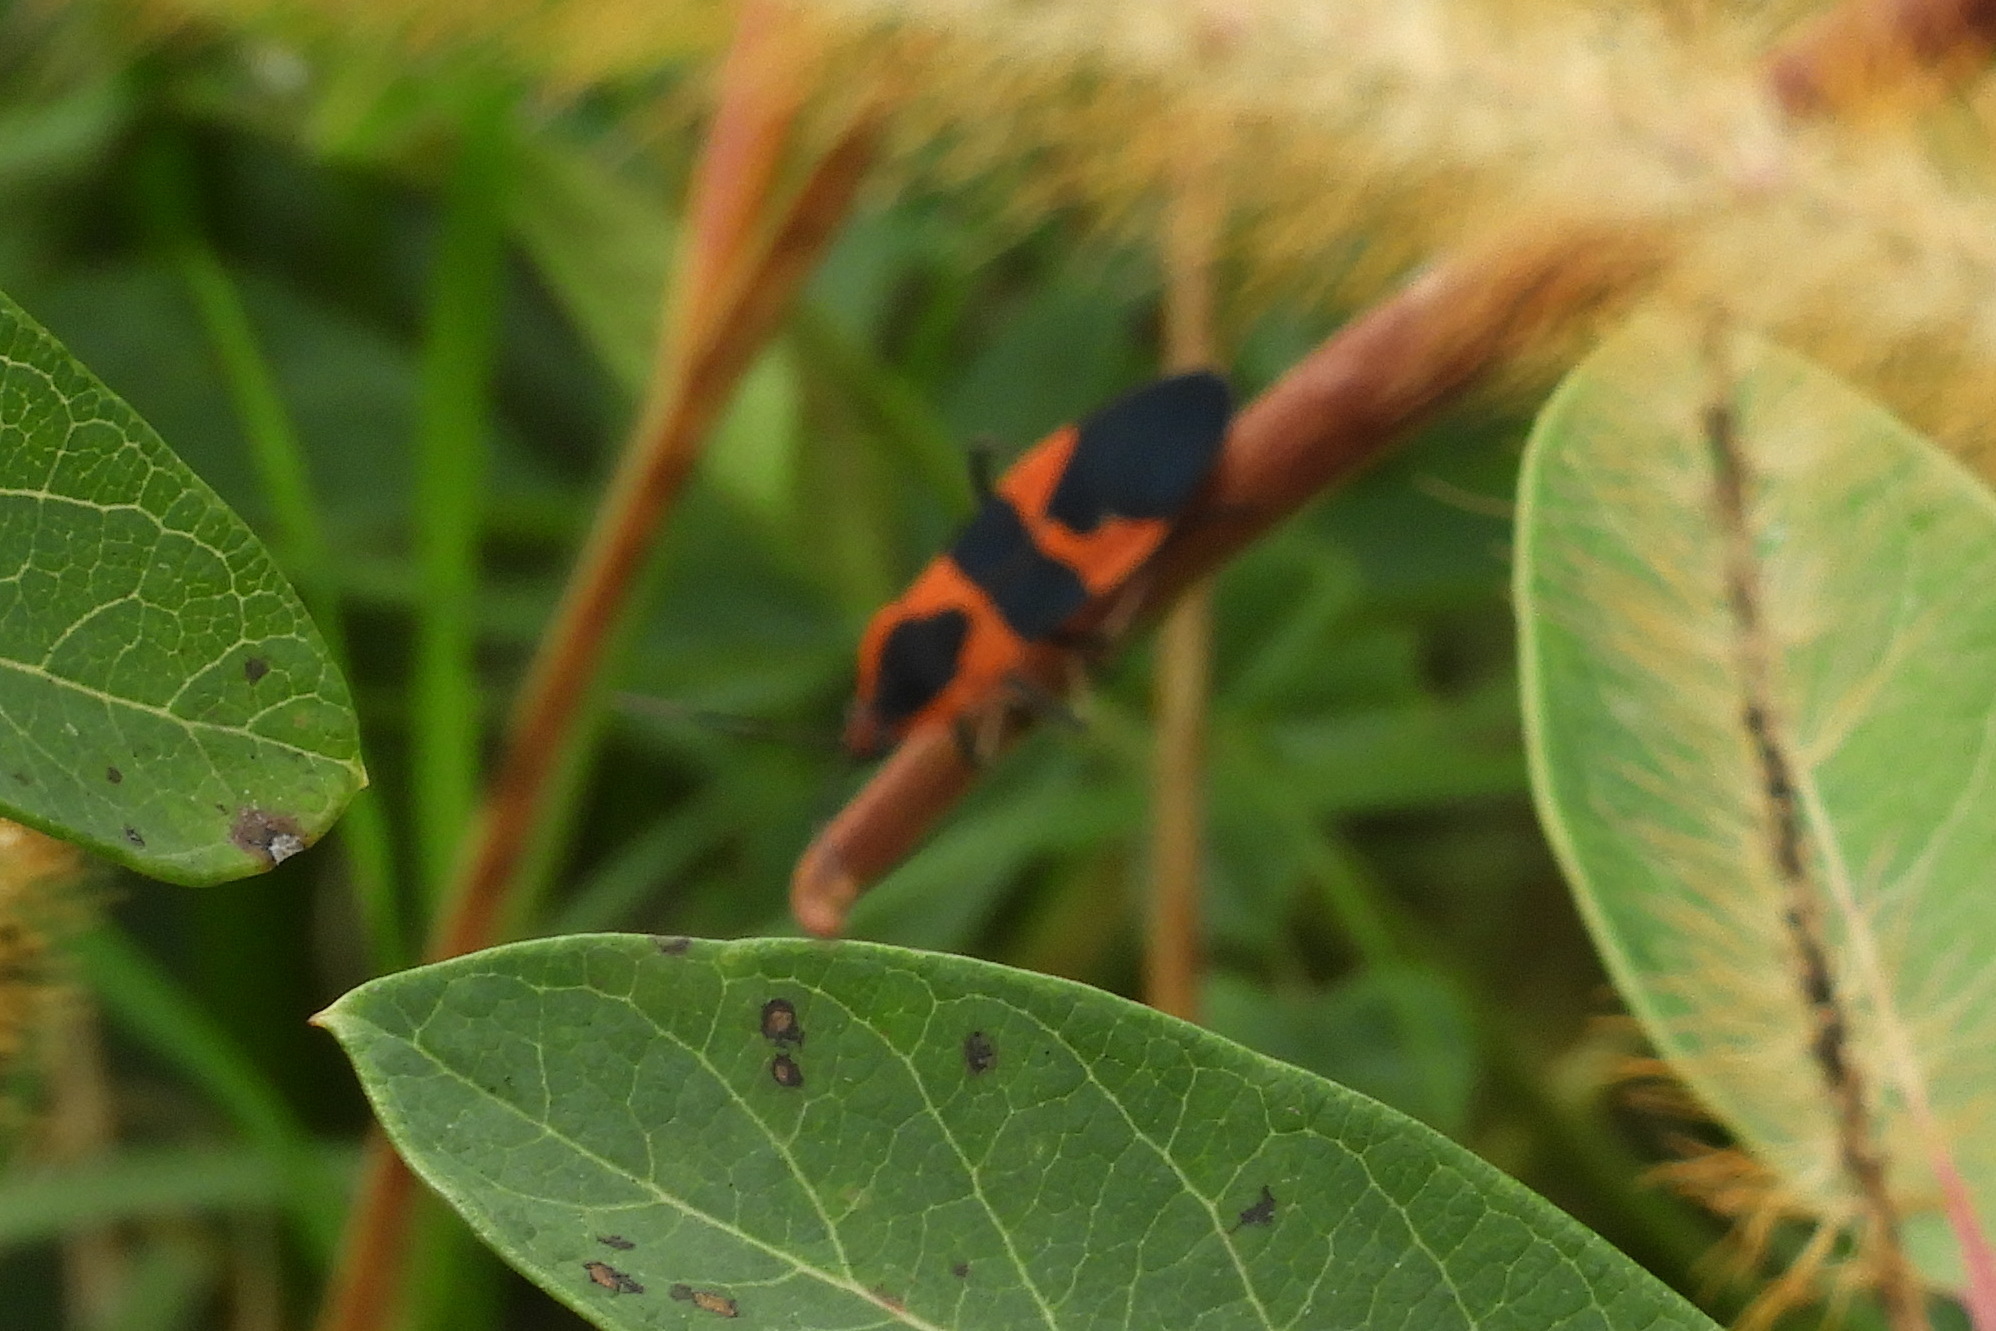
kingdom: Animalia
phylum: Arthropoda
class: Insecta
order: Hemiptera
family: Lygaeidae
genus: Oncopeltus
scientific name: Oncopeltus fasciatus
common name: Large milkweed bug
